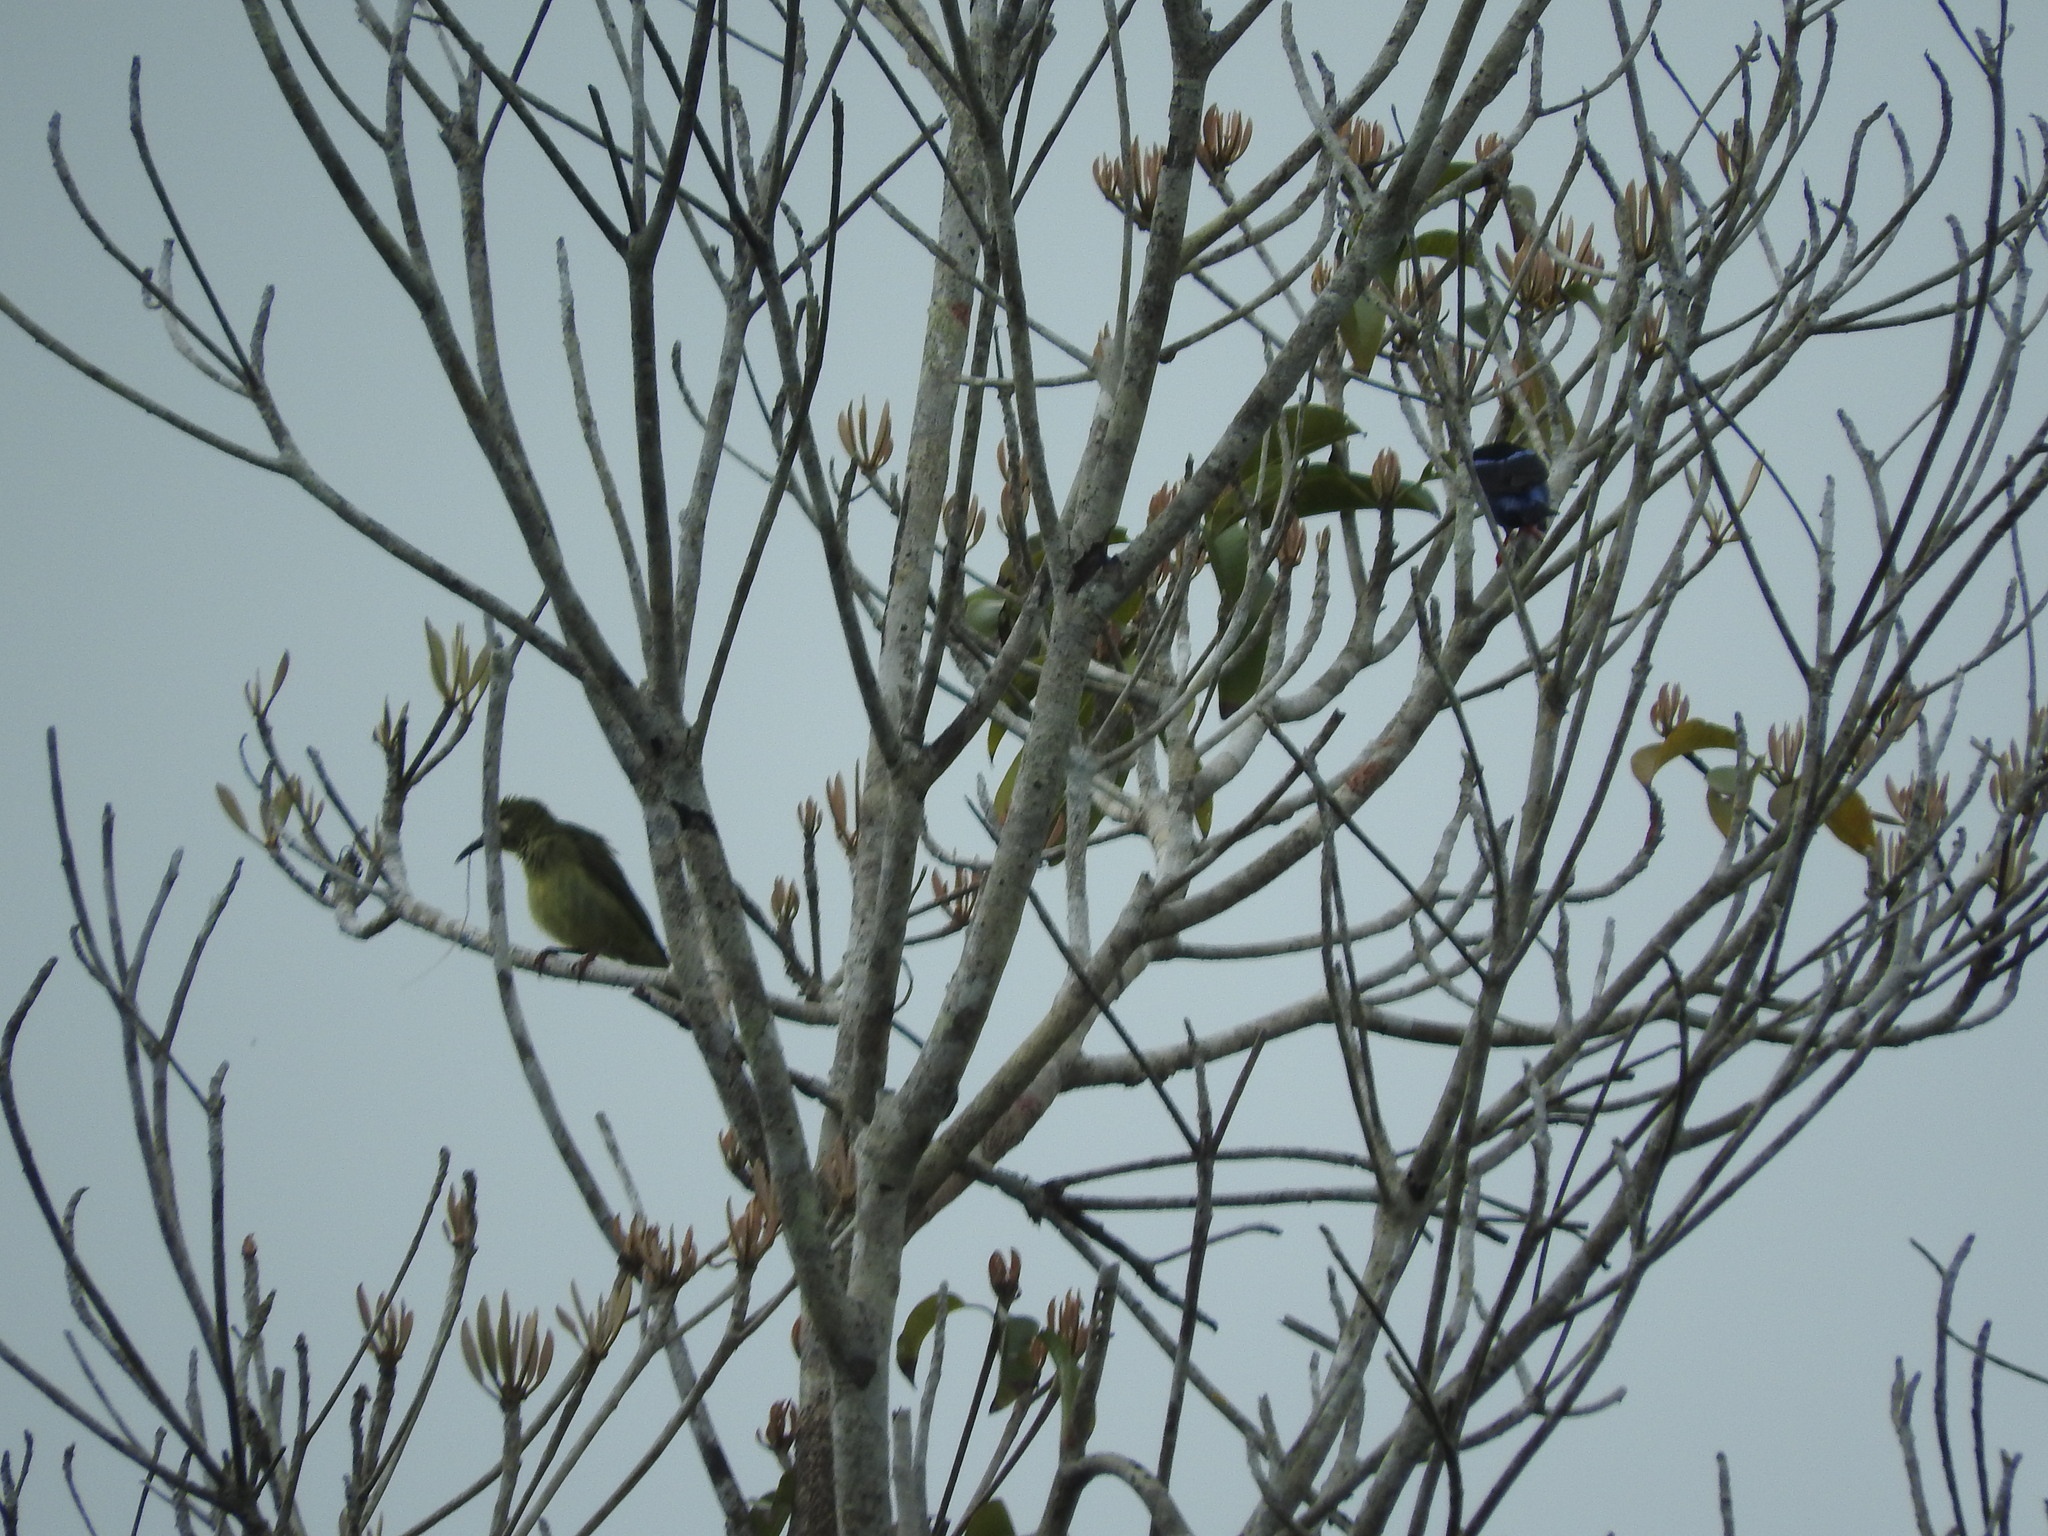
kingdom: Animalia
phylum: Chordata
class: Aves
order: Passeriformes
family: Thraupidae
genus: Cyanerpes
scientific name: Cyanerpes cyaneus
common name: Red-legged honeycreeper
